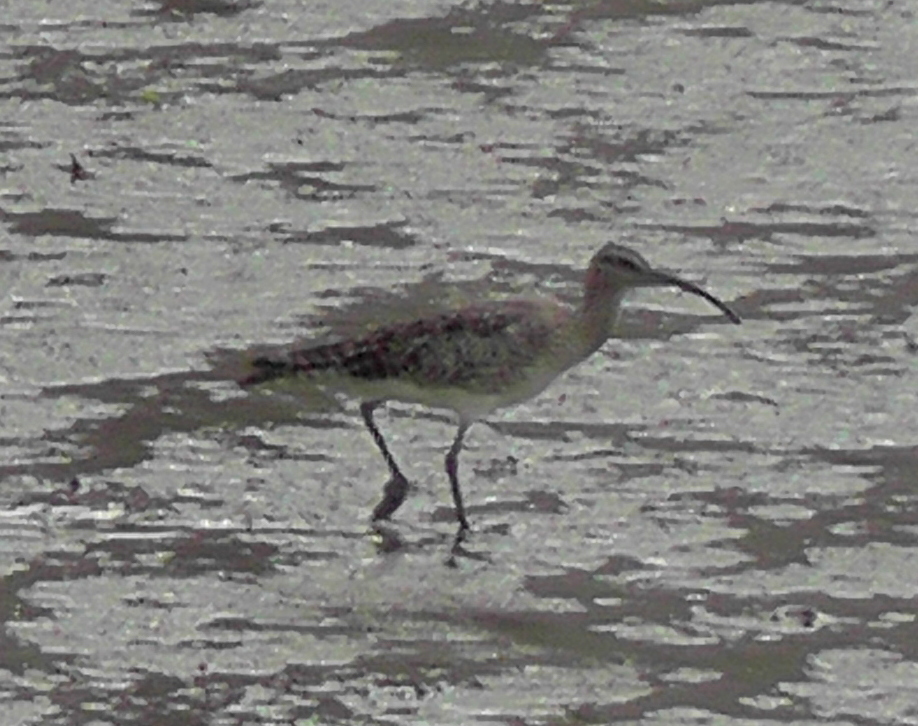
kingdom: Animalia
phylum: Chordata
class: Aves
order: Charadriiformes
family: Scolopacidae
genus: Numenius
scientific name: Numenius phaeopus
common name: Whimbrel
